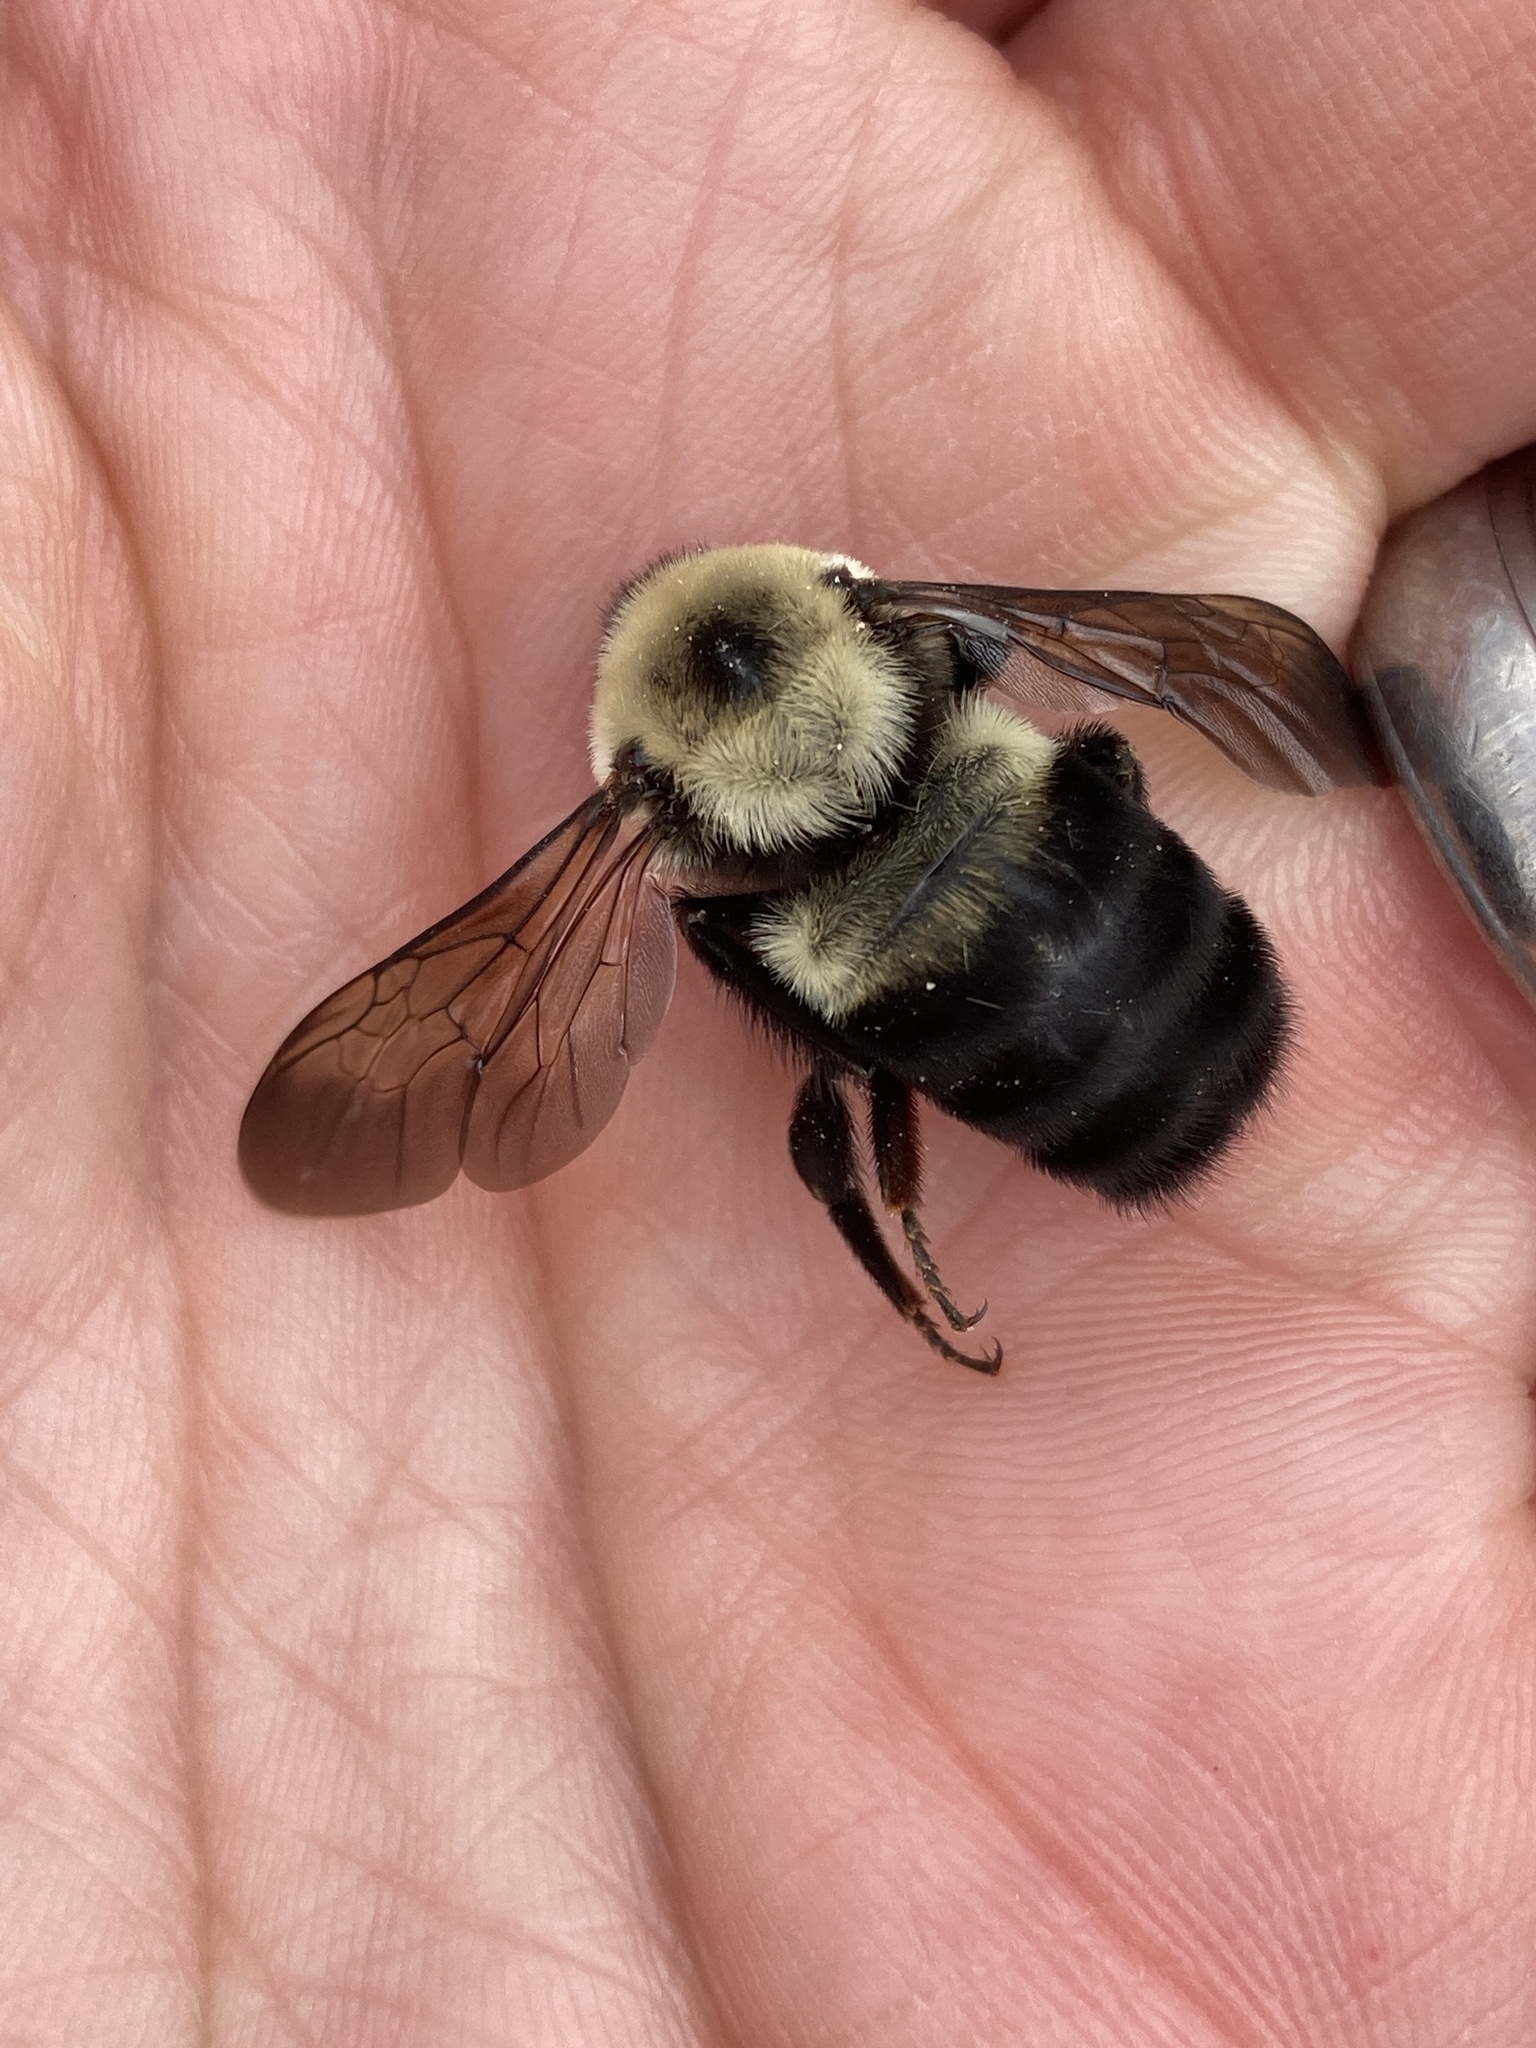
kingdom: Animalia
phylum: Arthropoda
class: Insecta
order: Hymenoptera
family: Apidae
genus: Bombus
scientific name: Bombus griseocollis
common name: Brown-belted bumble bee
